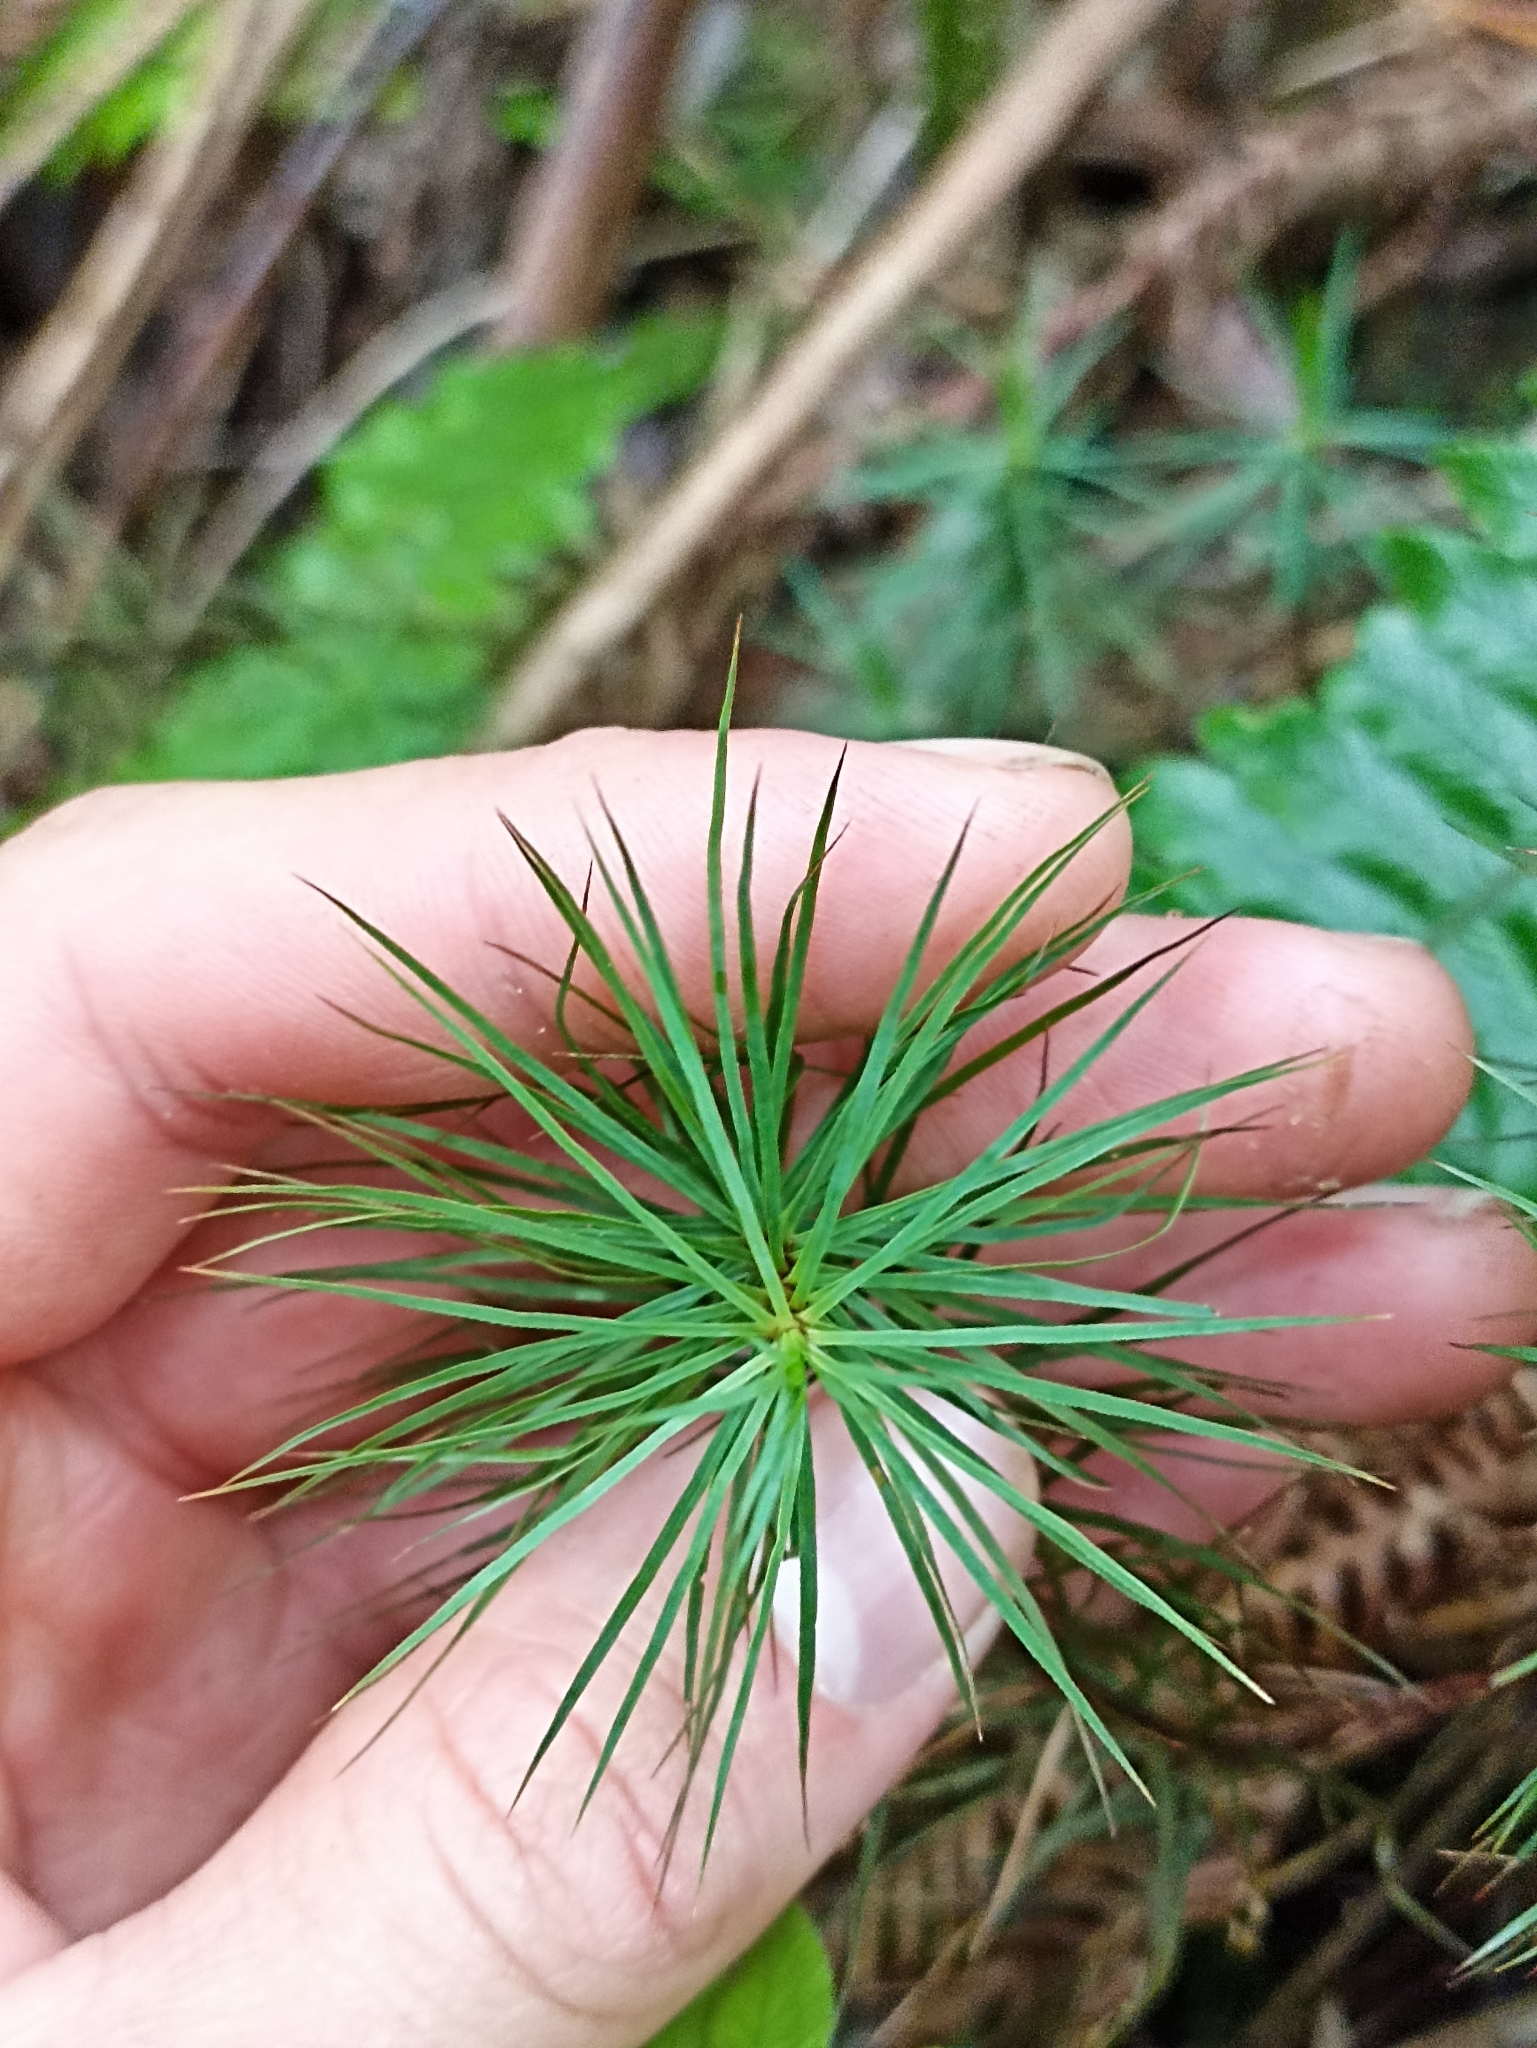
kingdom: Plantae
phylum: Bryophyta
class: Polytrichopsida
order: Polytrichales
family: Polytrichaceae
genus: Dawsonia
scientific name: Dawsonia superba
